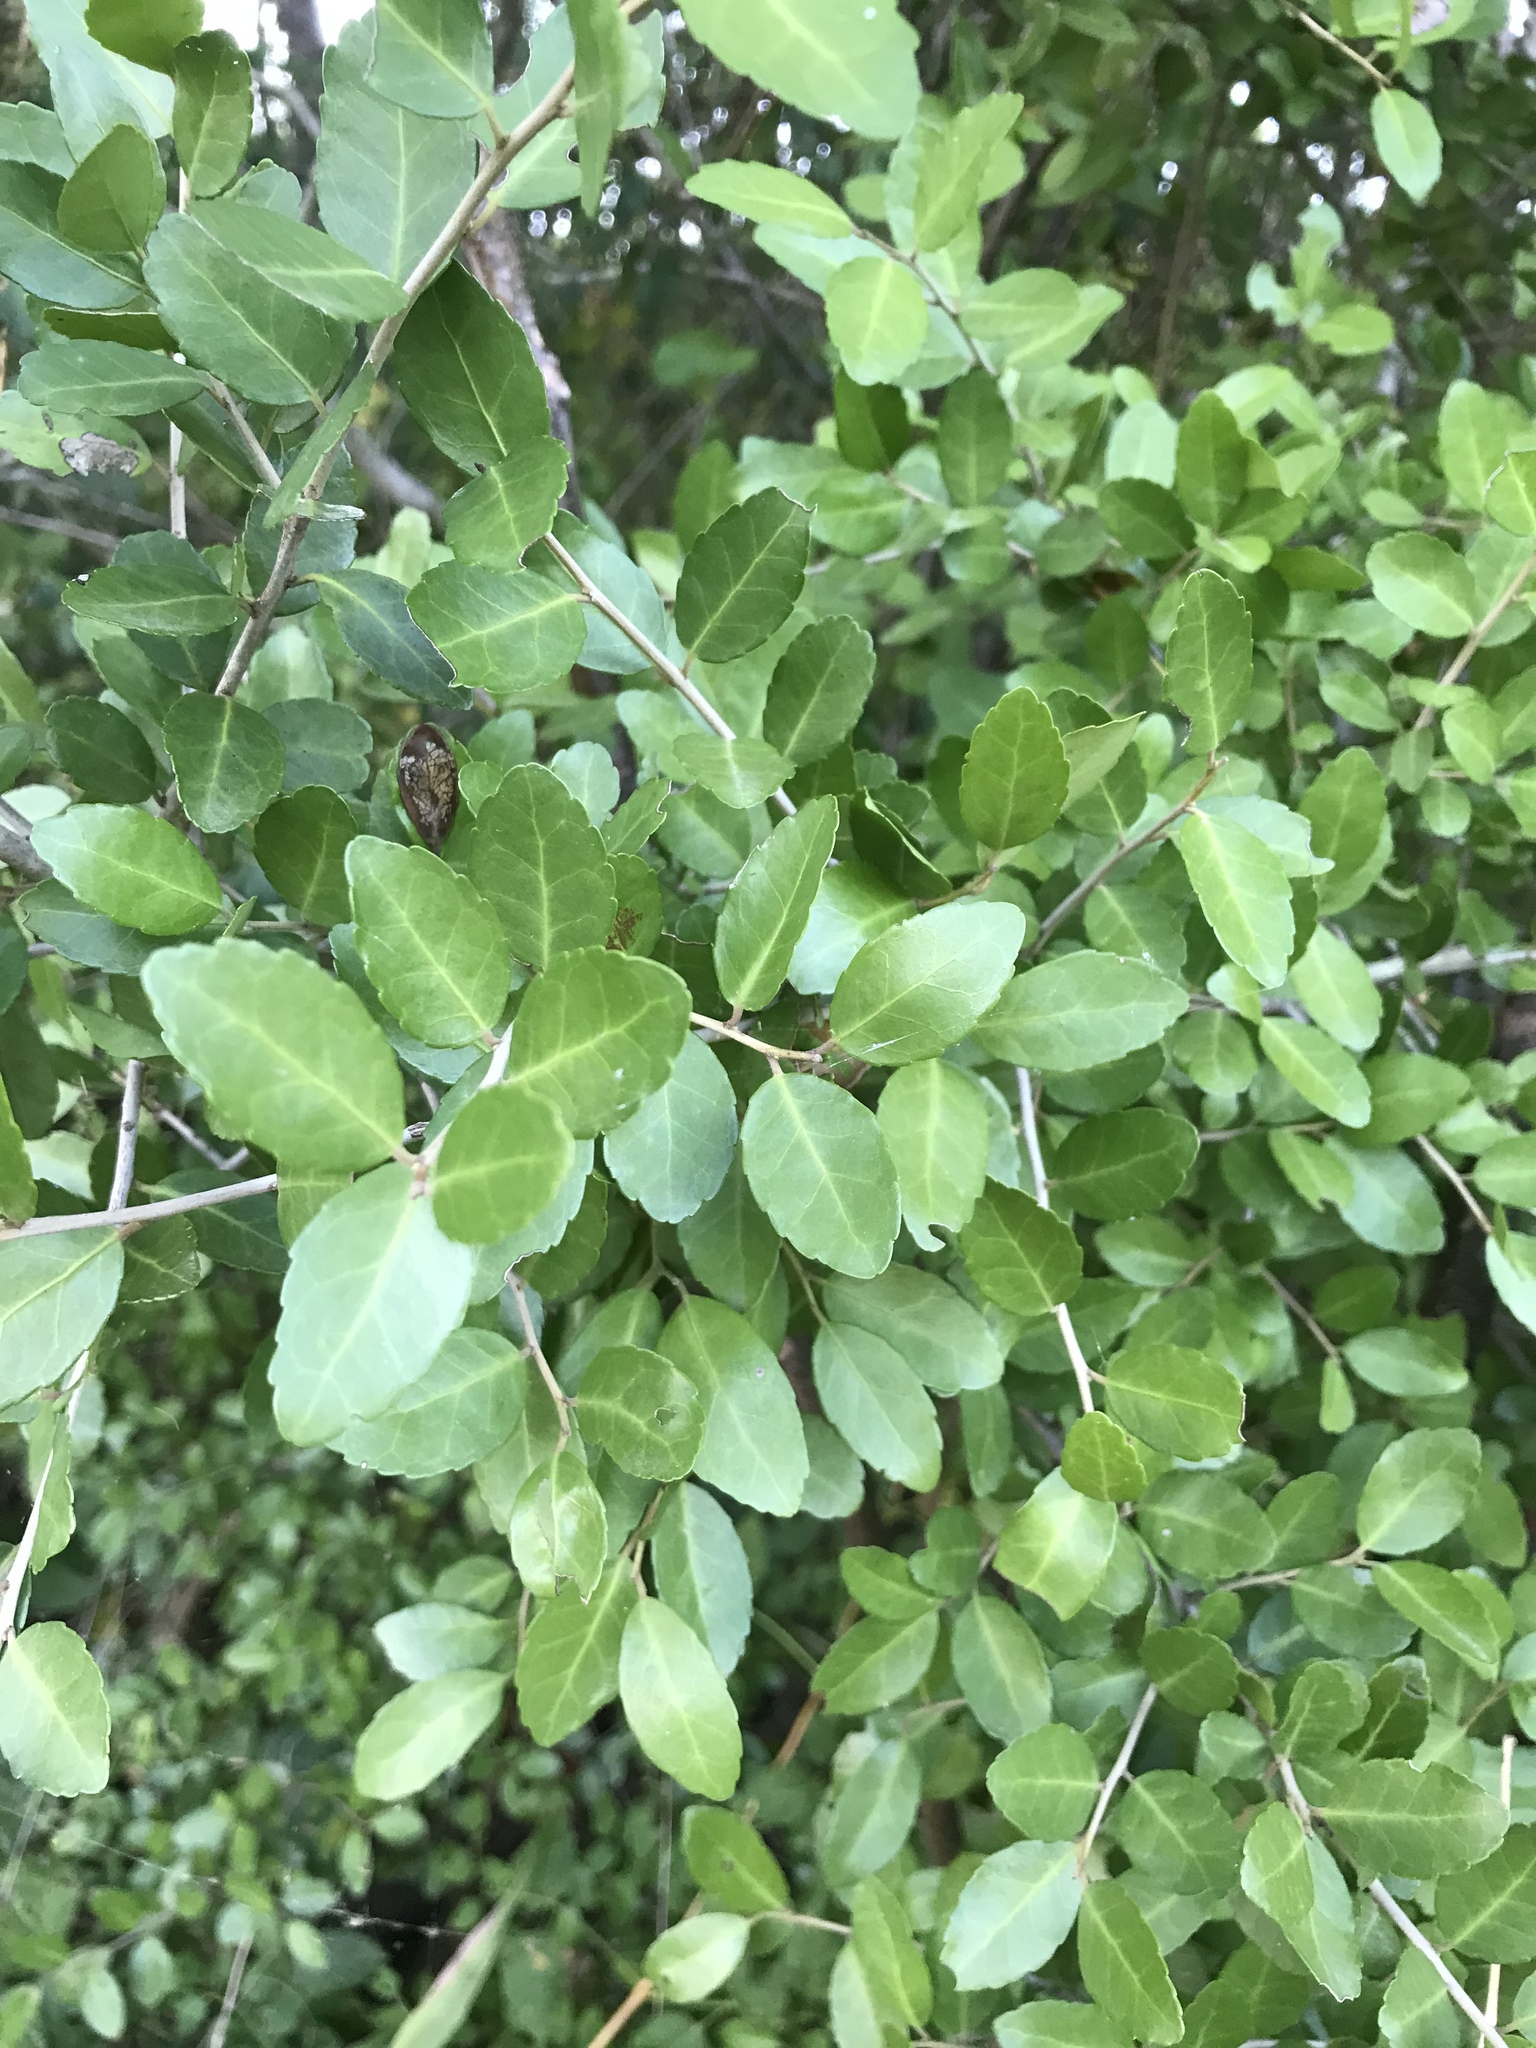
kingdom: Plantae
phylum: Tracheophyta
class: Magnoliopsida
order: Aquifoliales
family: Aquifoliaceae
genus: Ilex
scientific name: Ilex vomitoria
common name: Yaupon holly
